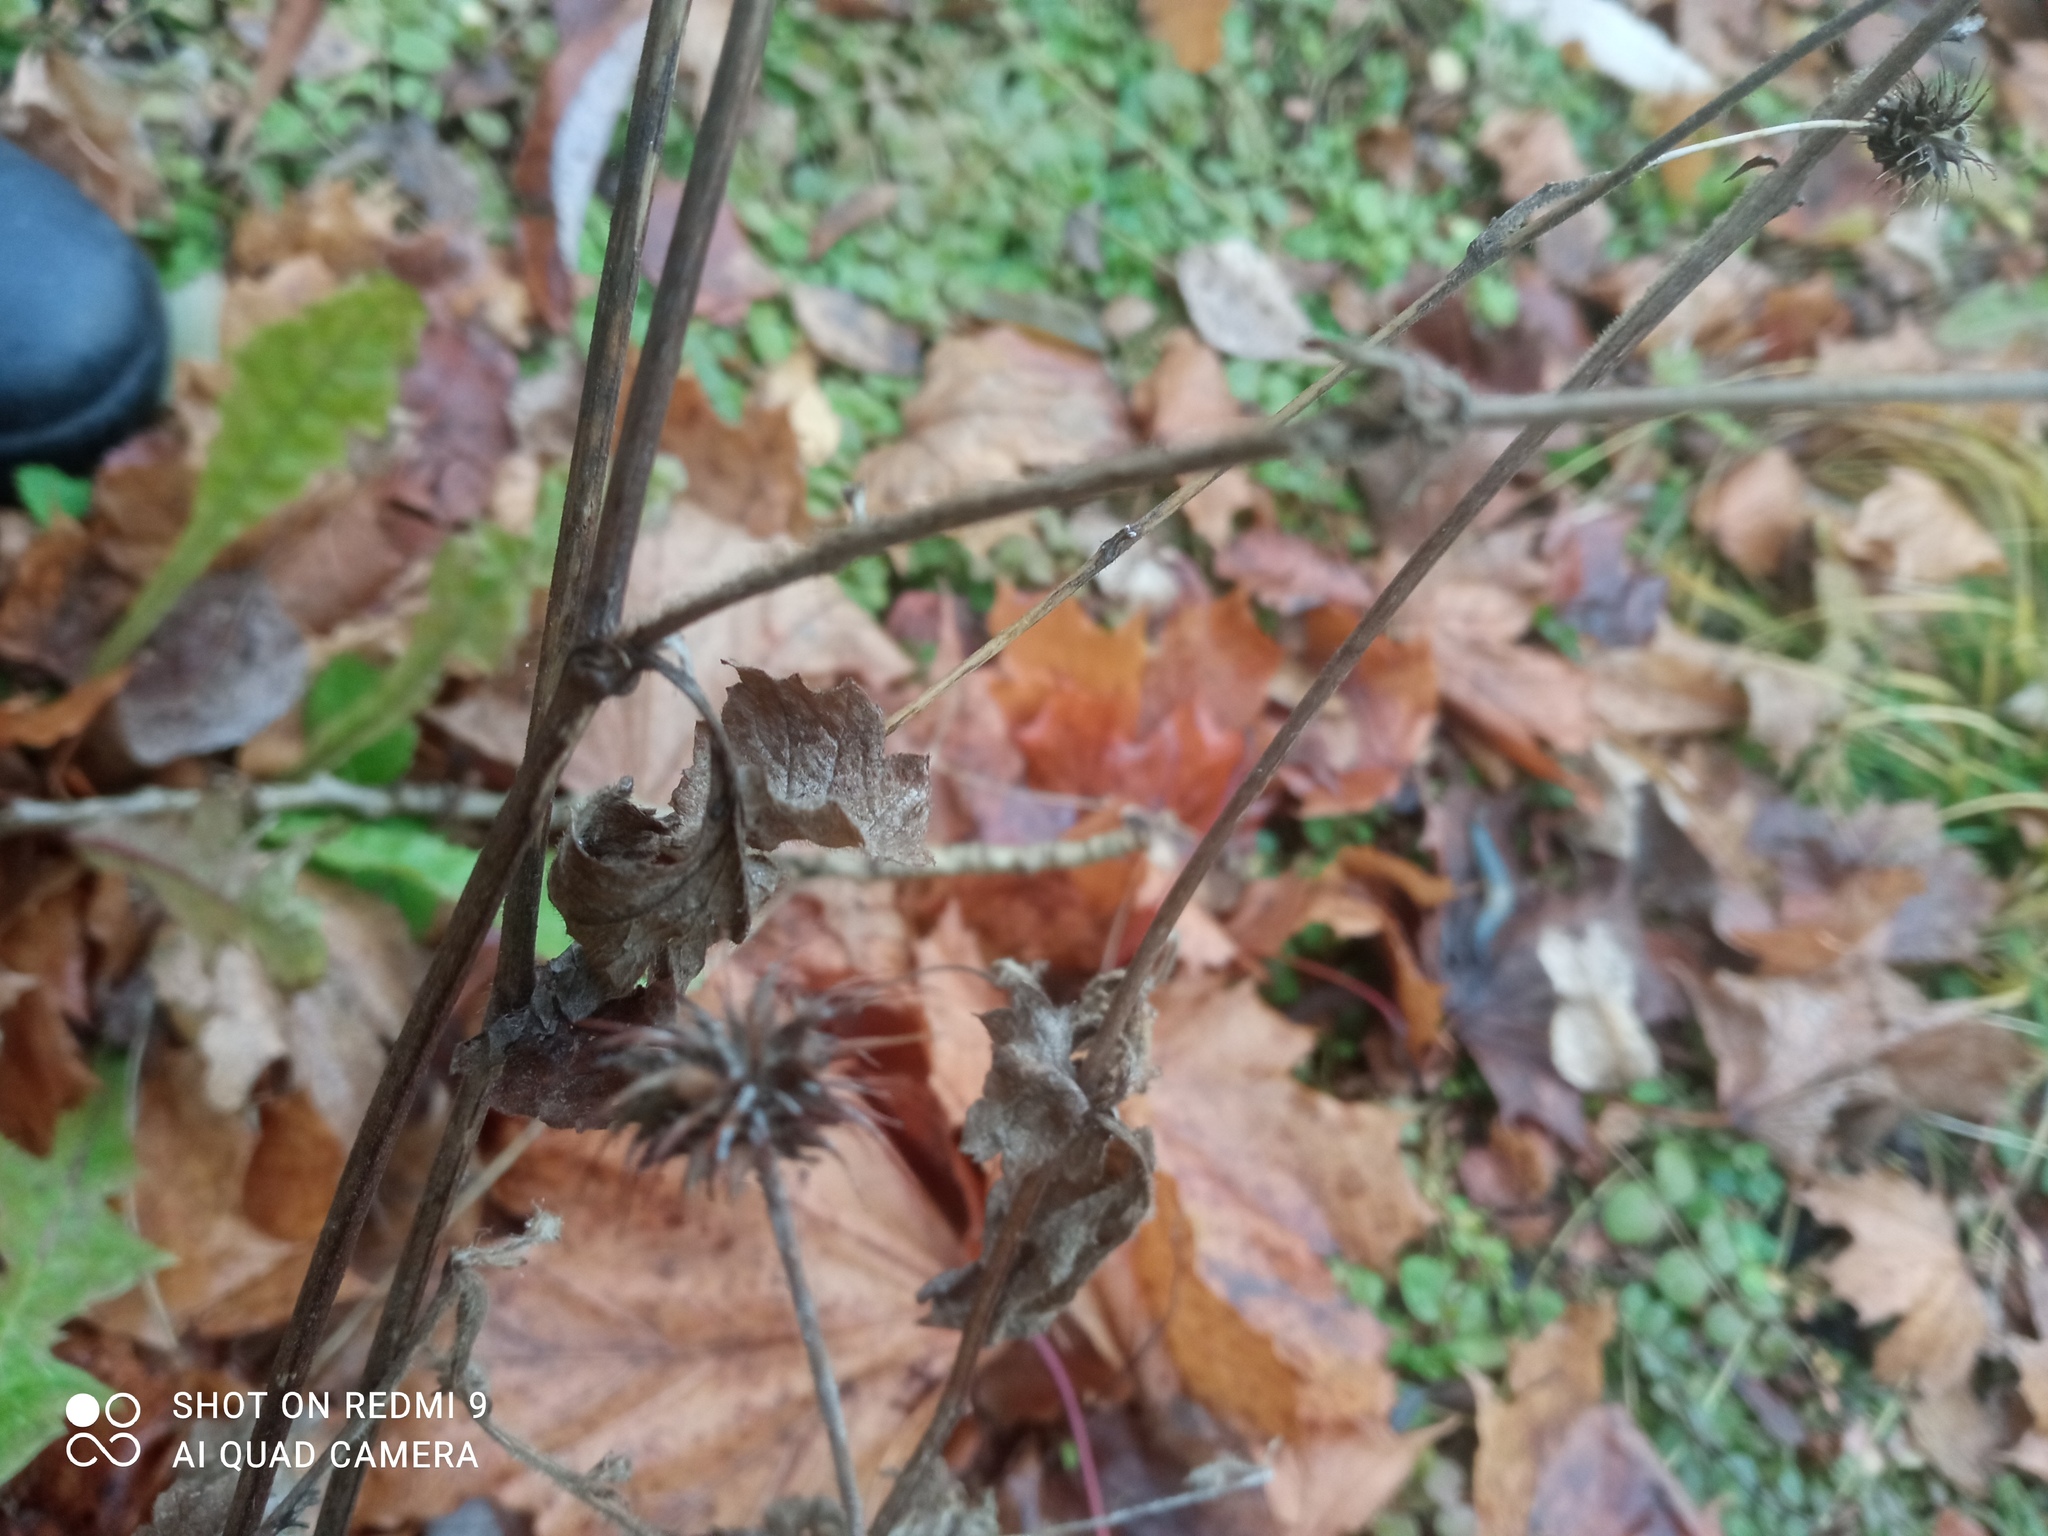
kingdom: Plantae
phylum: Tracheophyta
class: Magnoliopsida
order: Rosales
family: Rosaceae
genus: Geum
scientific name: Geum urbanum
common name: Wood avens
